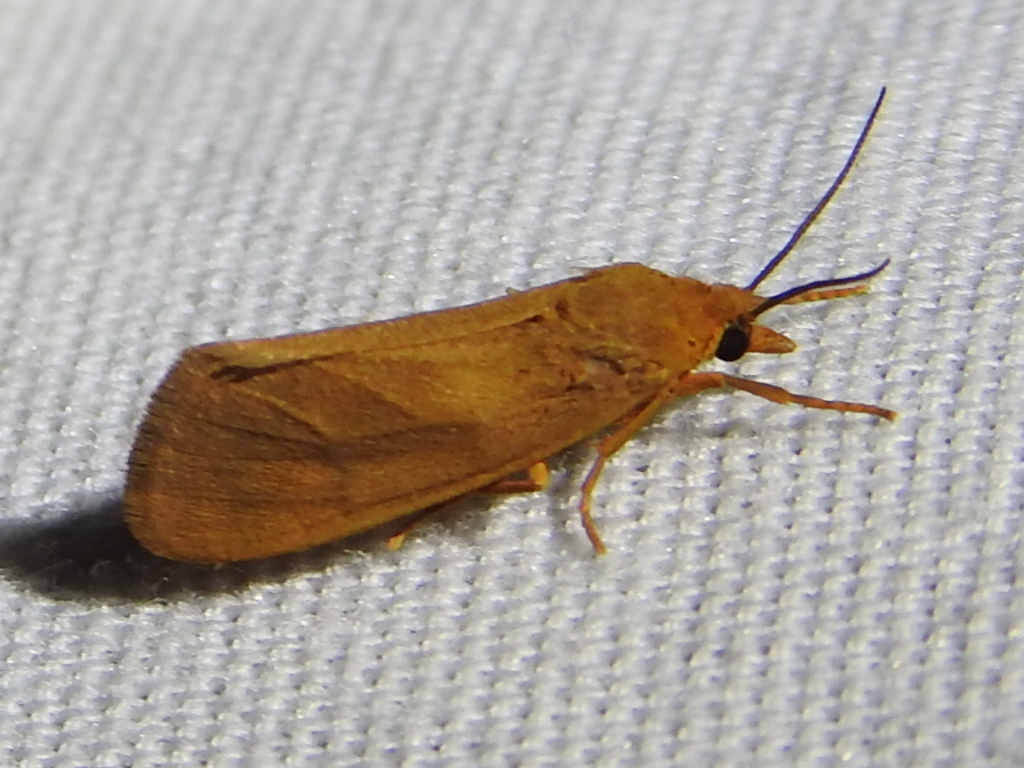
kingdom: Animalia
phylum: Arthropoda
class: Insecta
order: Lepidoptera
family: Erebidae
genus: Virbia
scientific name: Virbia aurantiaca
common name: Orange virbia moth
